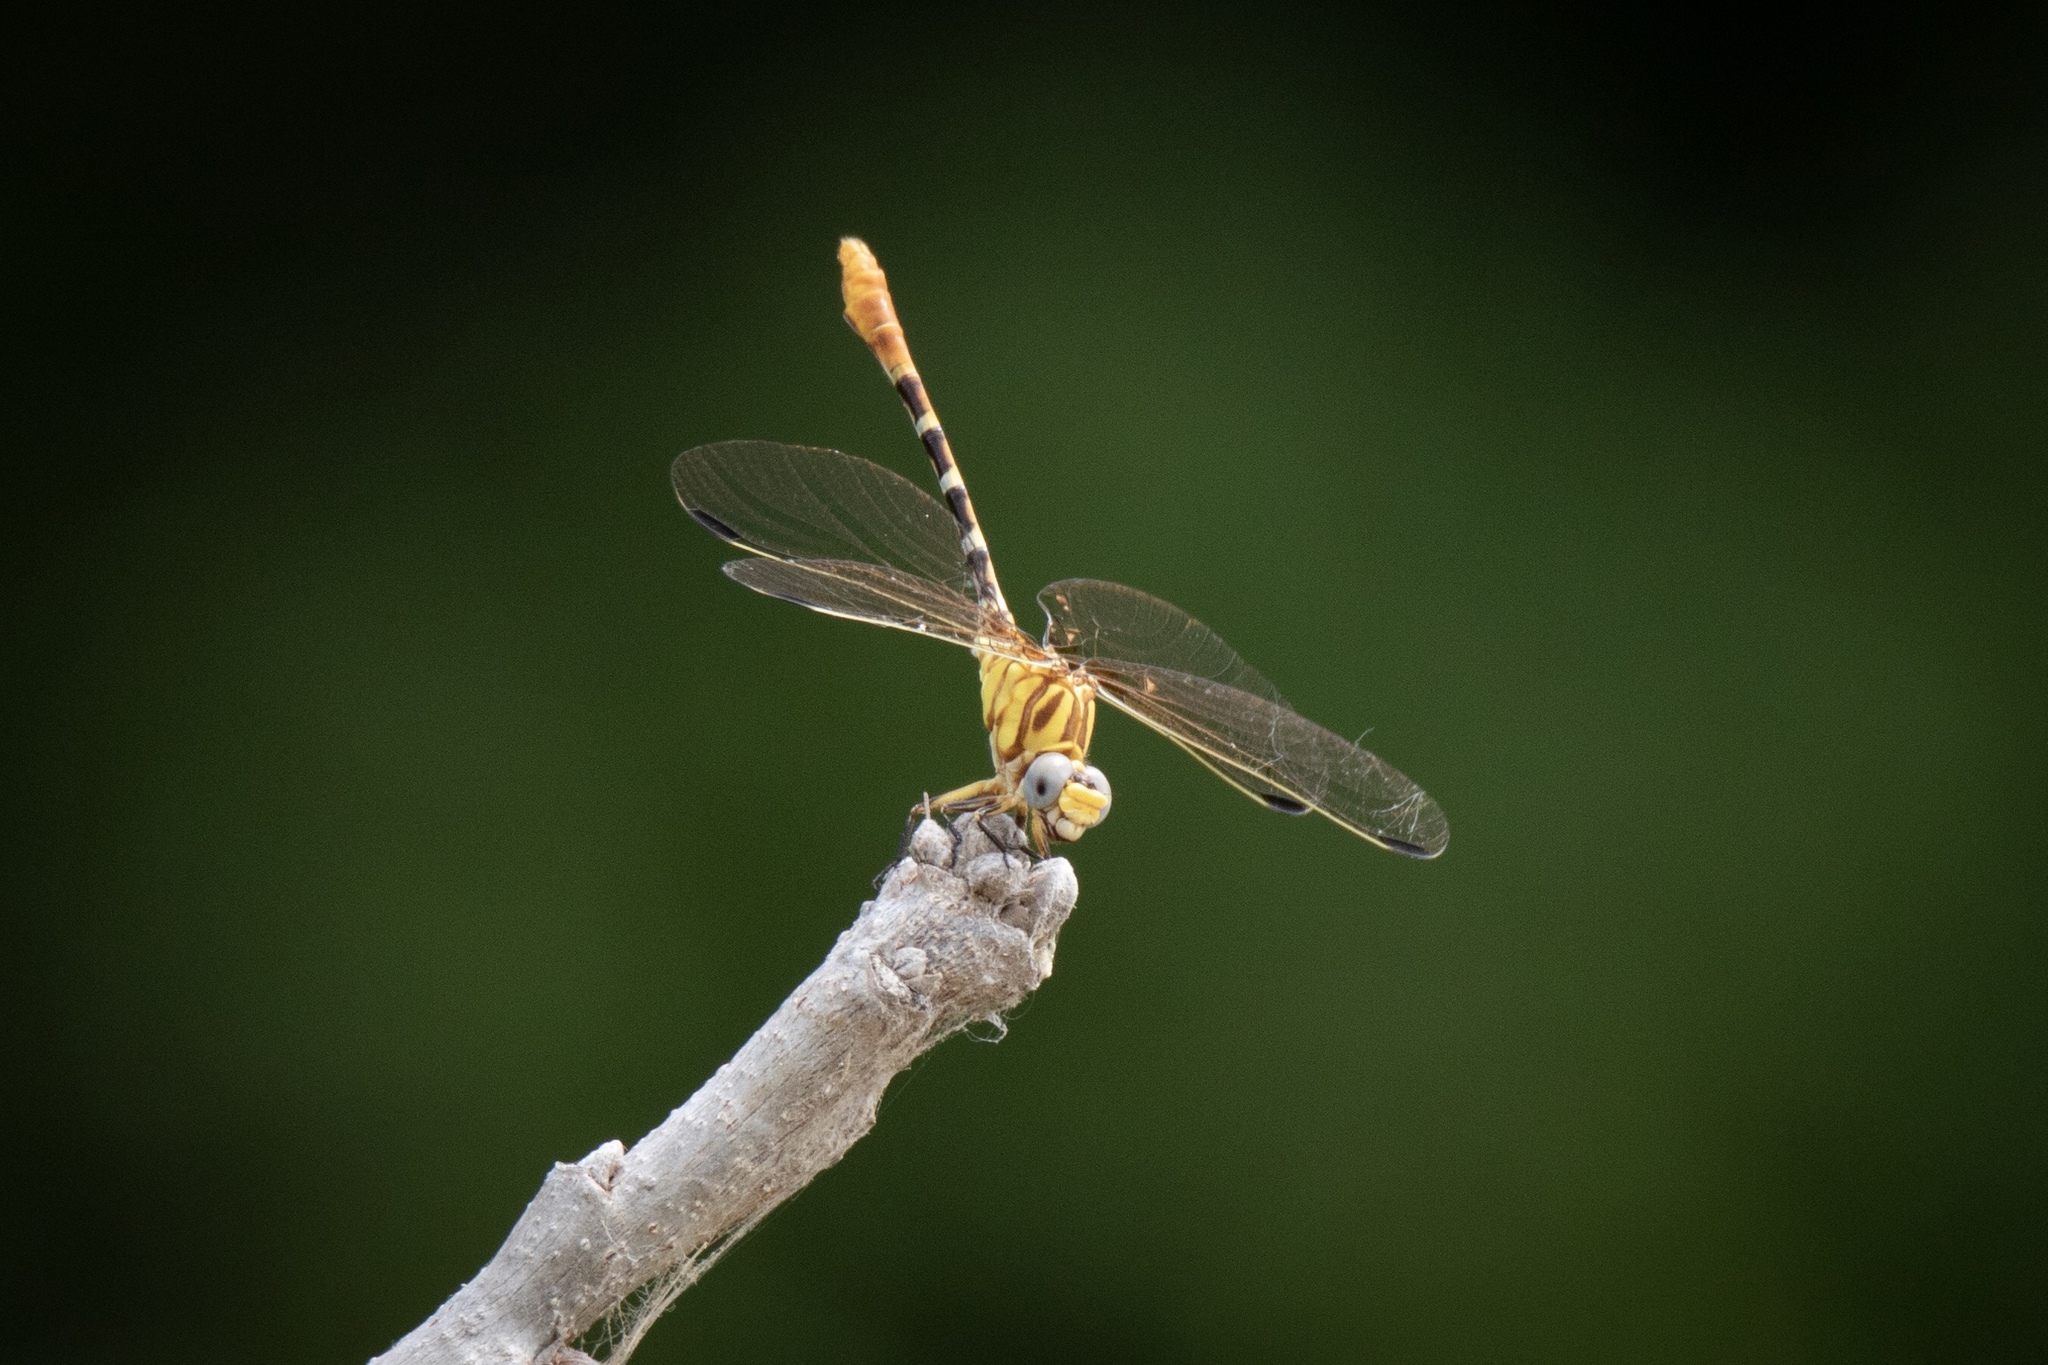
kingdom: Animalia
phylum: Arthropoda
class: Insecta
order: Odonata
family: Gomphidae
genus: Erpetogomphus
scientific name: Erpetogomphus designatus
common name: Eastern ringtail
